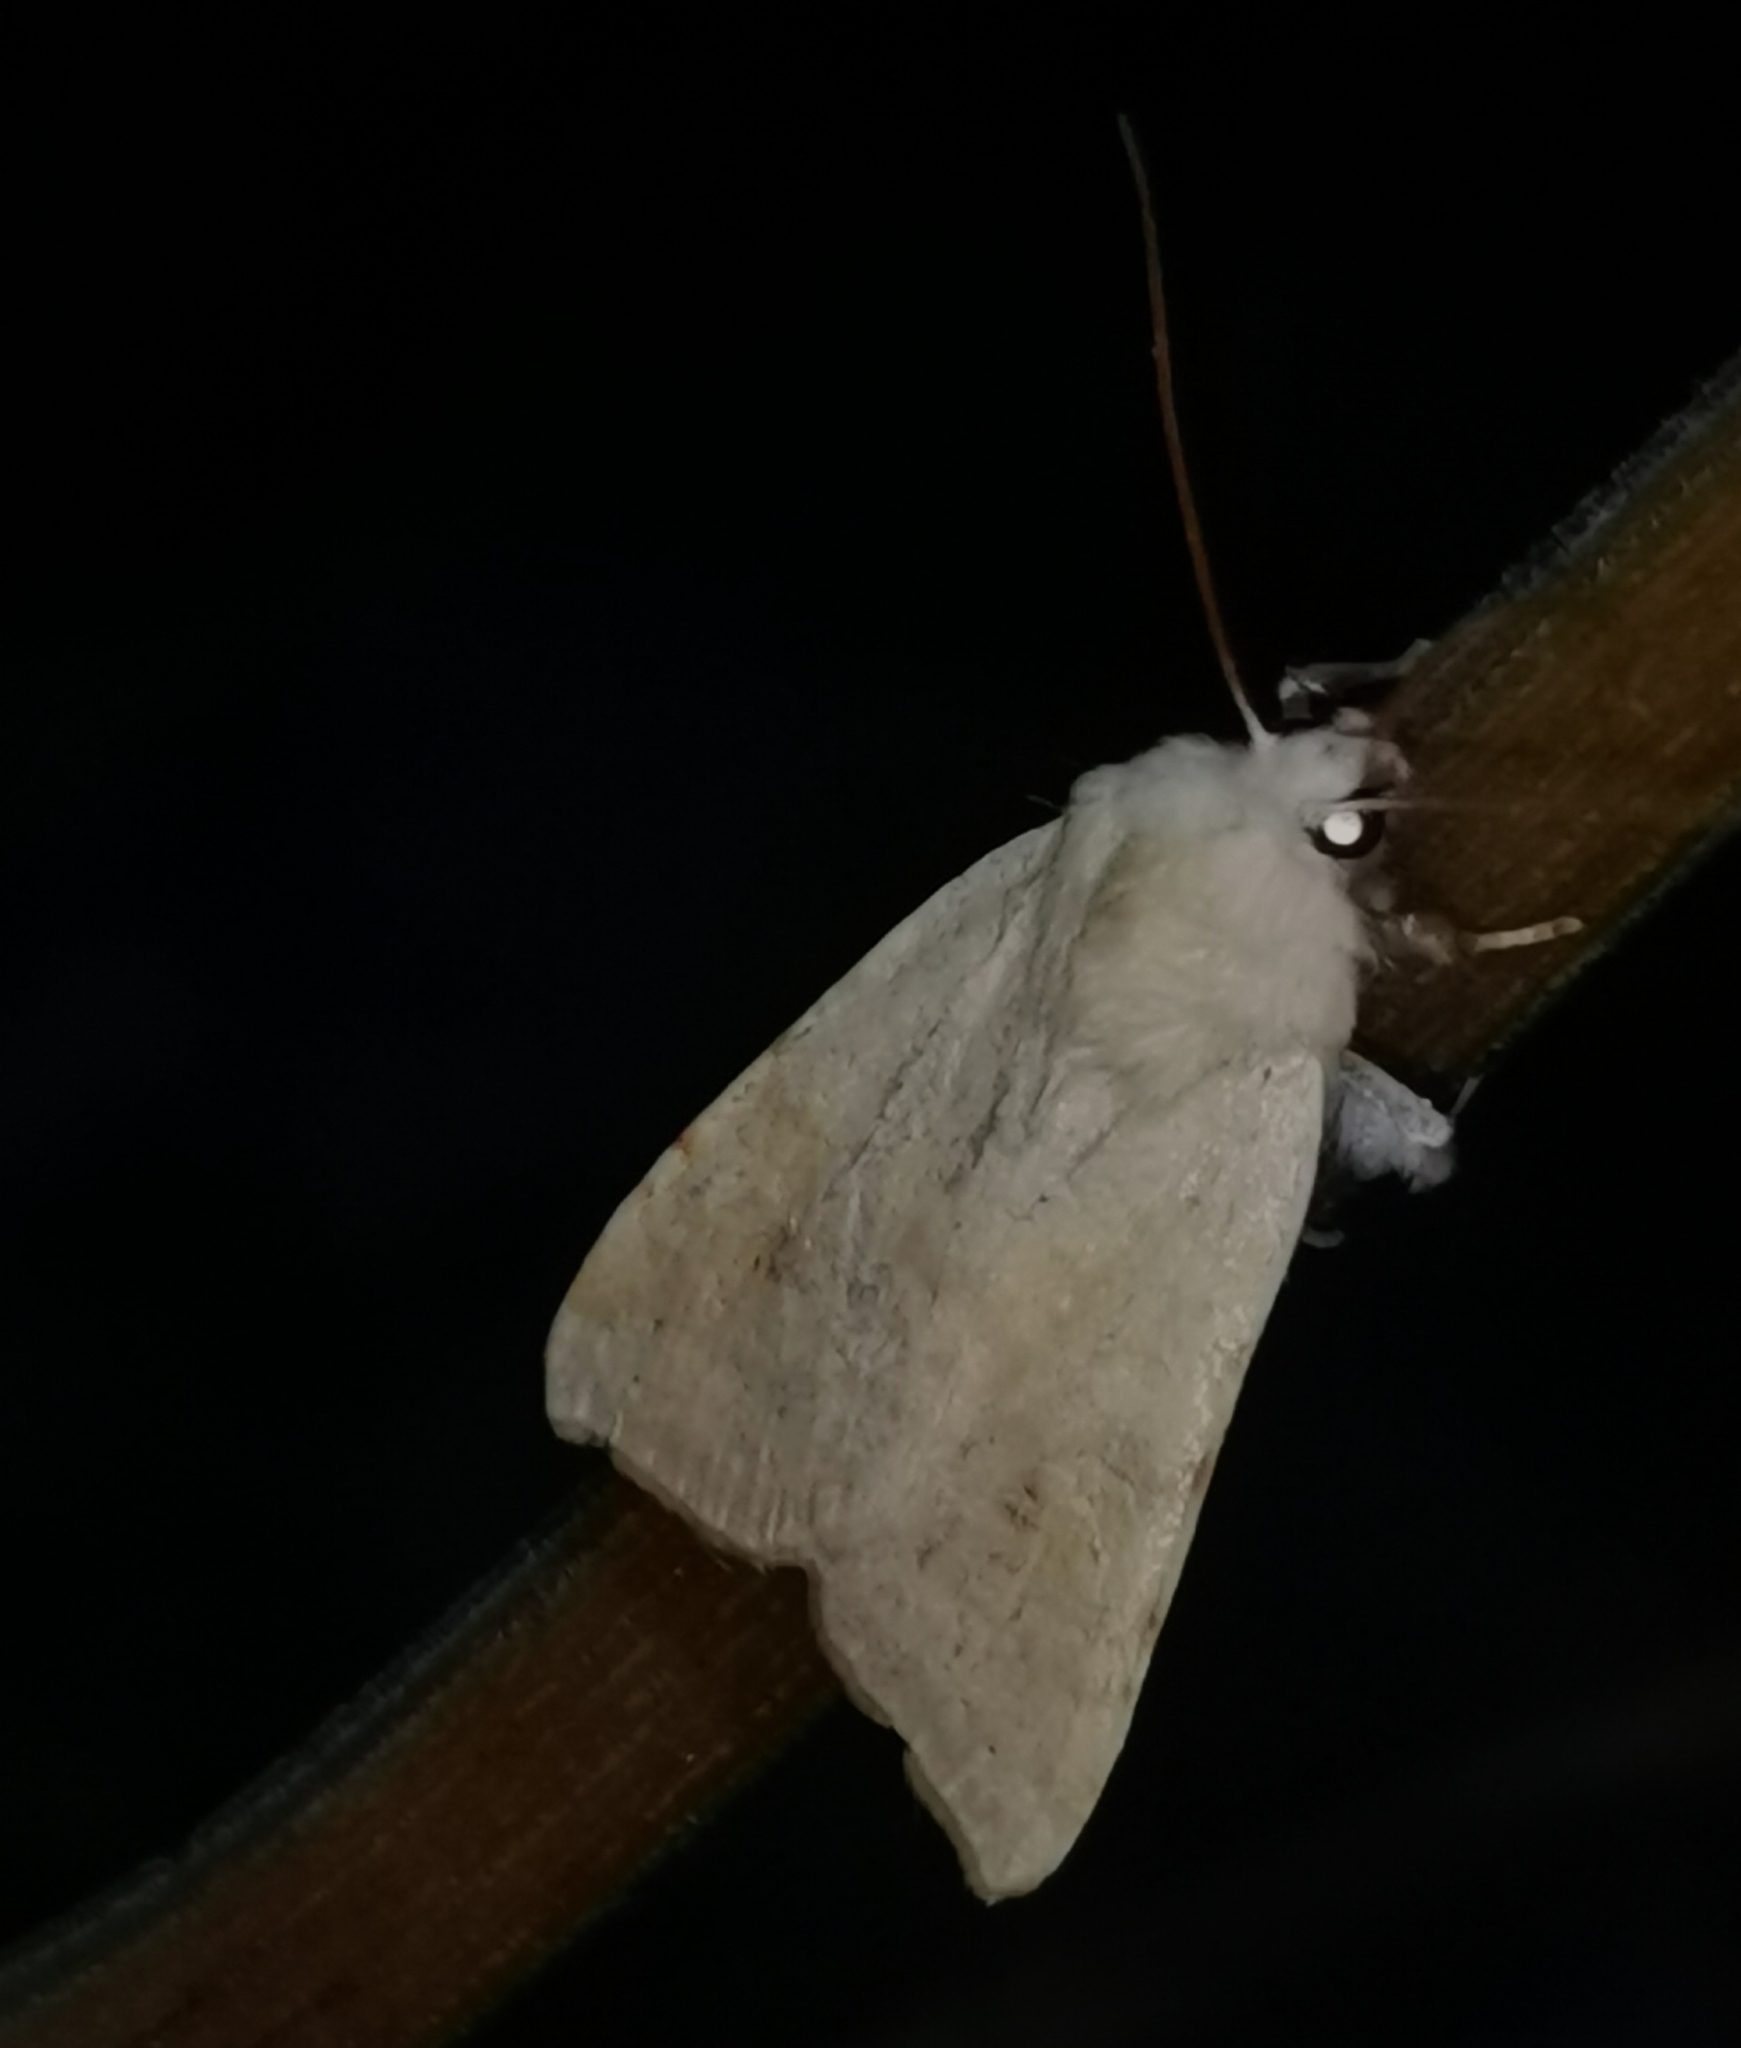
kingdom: Animalia
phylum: Arthropoda
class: Insecta
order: Lepidoptera
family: Noctuidae
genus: Xanthia
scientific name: Xanthia icteritia
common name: The sallow
